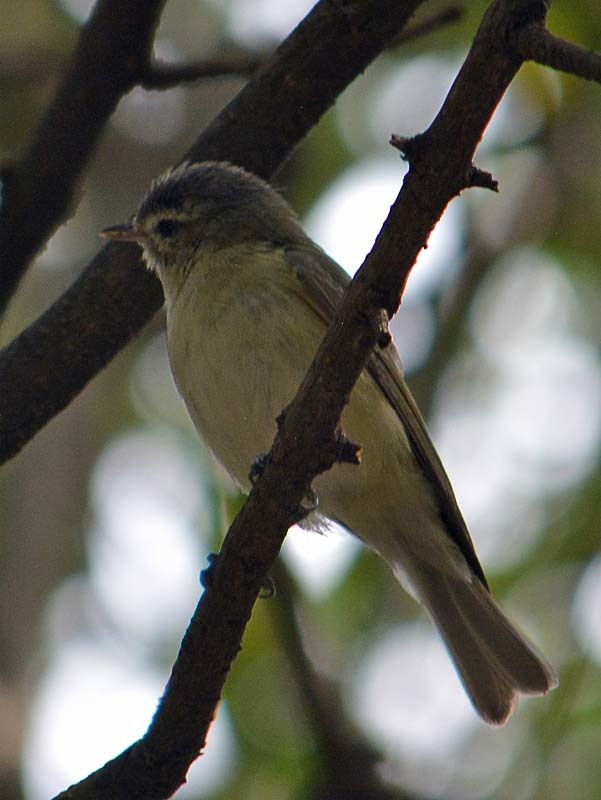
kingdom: Animalia
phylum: Chordata
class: Aves
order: Passeriformes
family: Vireonidae
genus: Vireo
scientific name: Vireo gilvus
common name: Warbling vireo
